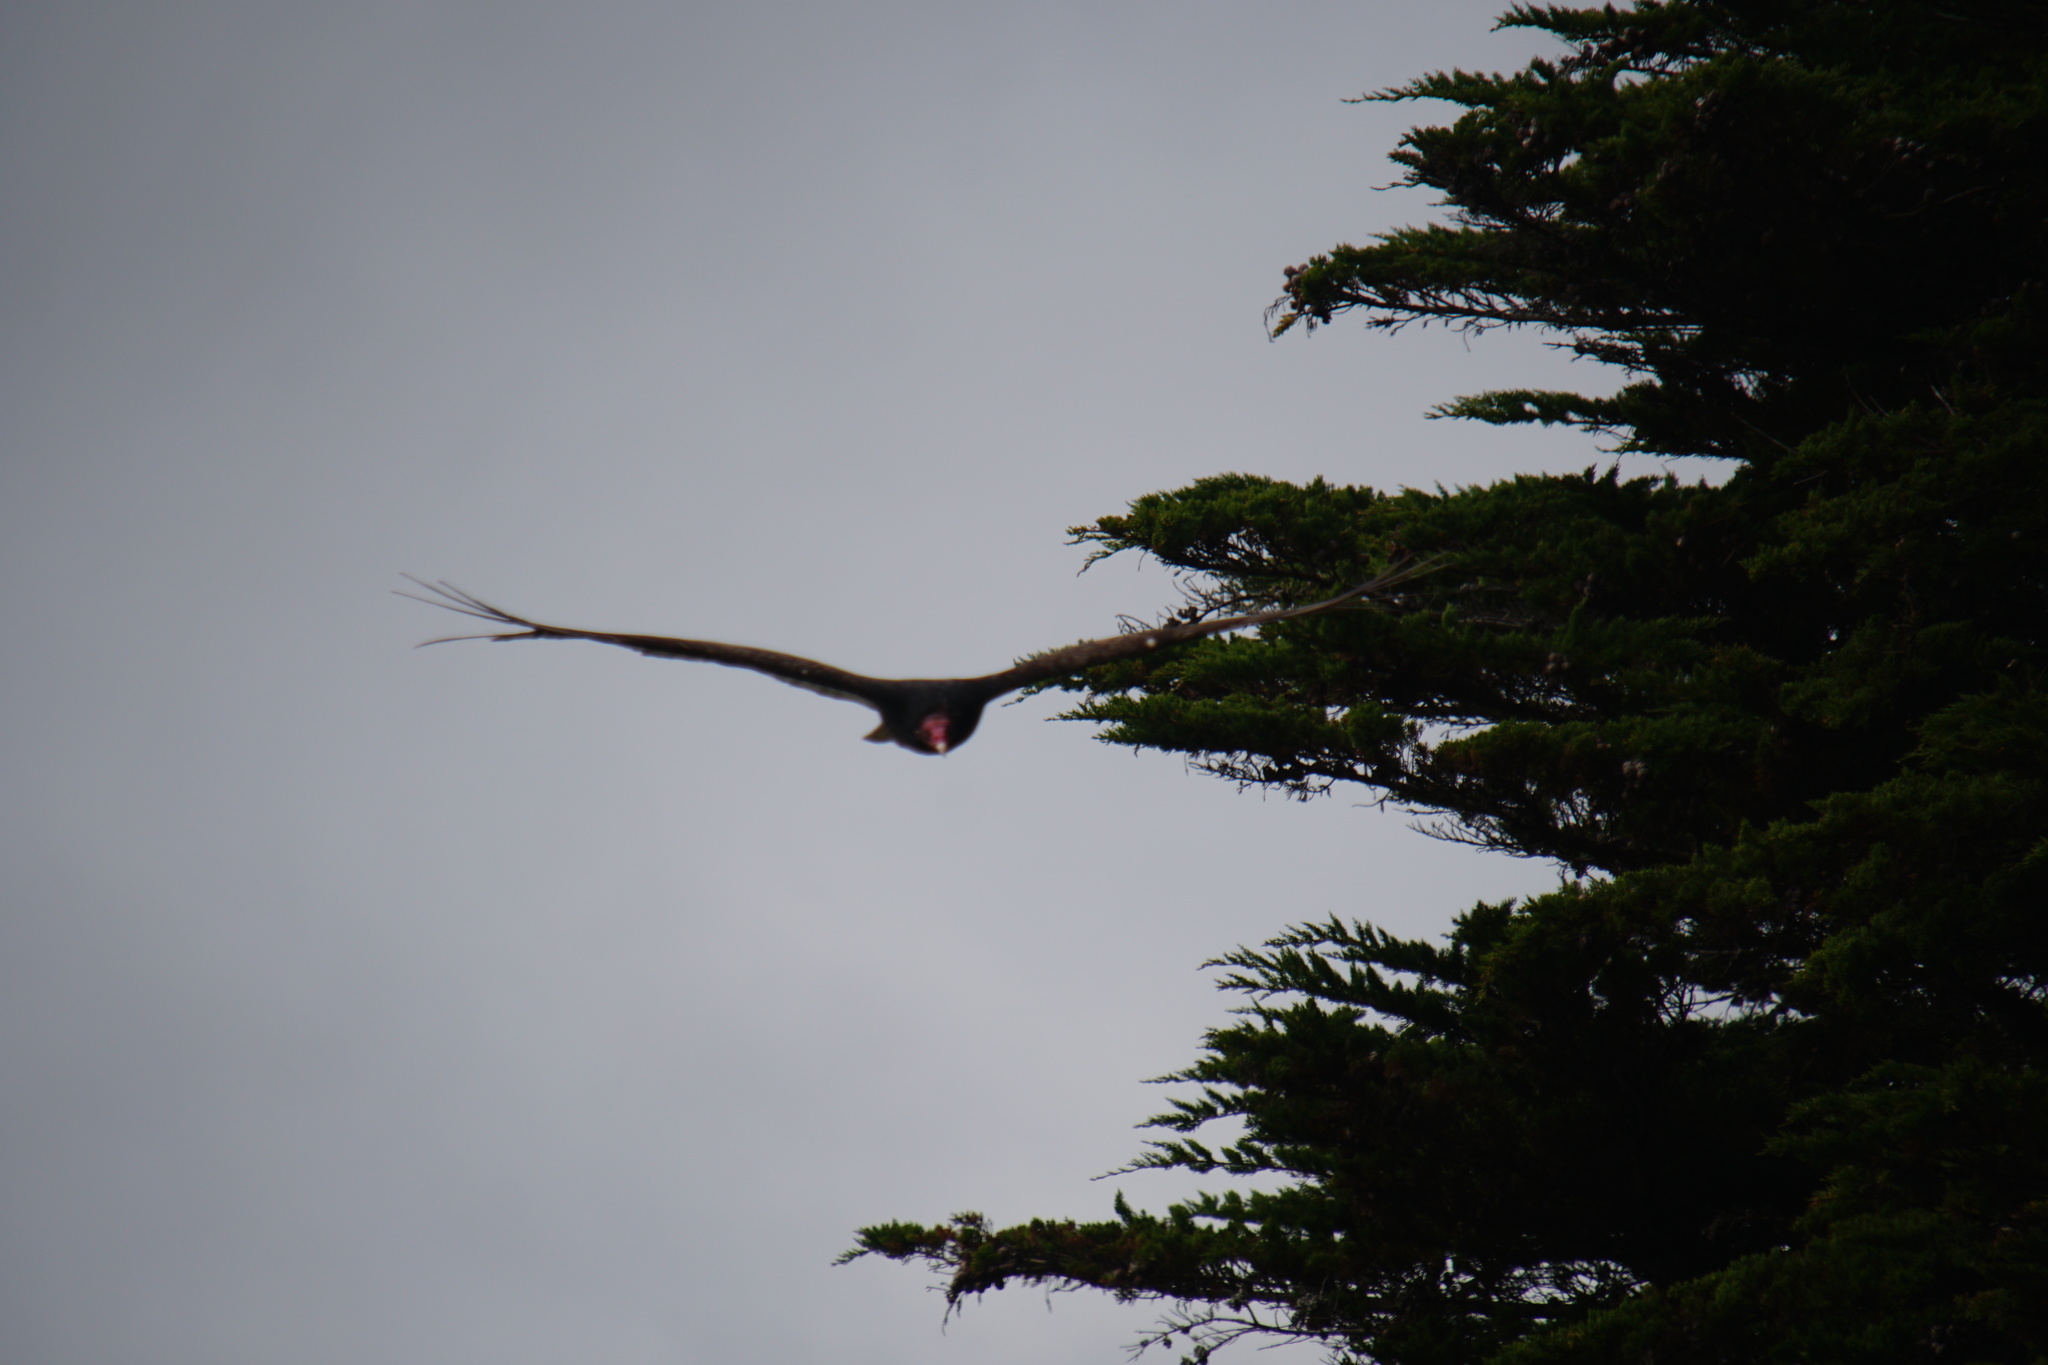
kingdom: Animalia
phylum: Chordata
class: Aves
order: Accipitriformes
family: Cathartidae
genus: Cathartes
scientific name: Cathartes aura
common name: Turkey vulture
